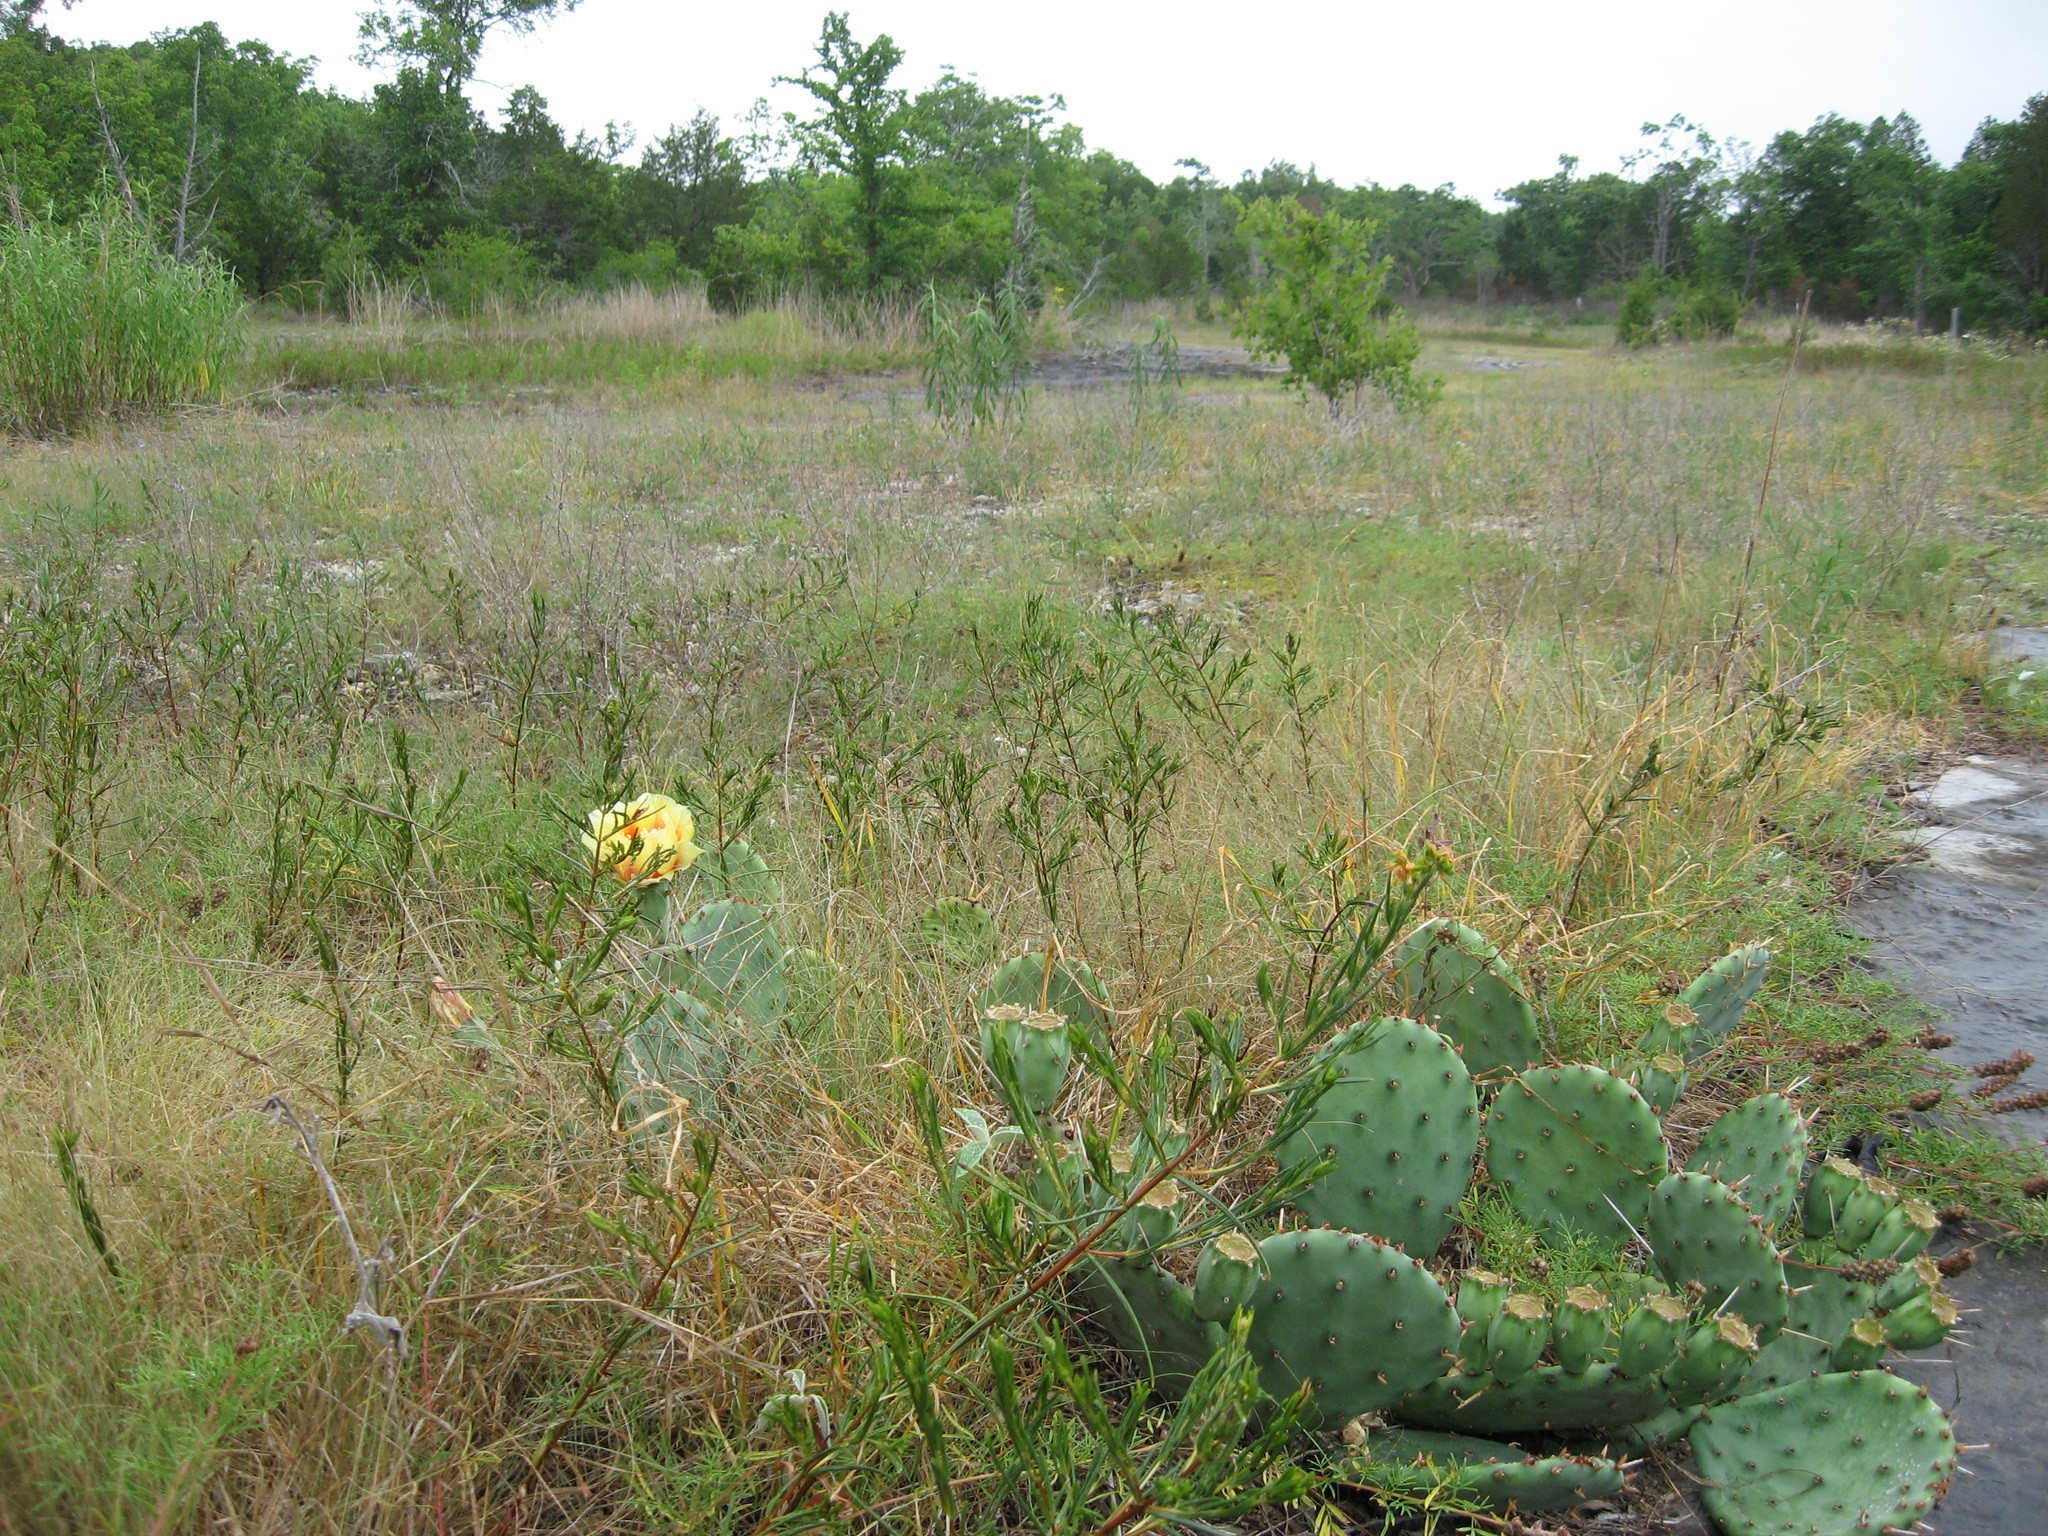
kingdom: Plantae
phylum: Tracheophyta
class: Magnoliopsida
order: Caryophyllales
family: Cactaceae
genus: Opuntia
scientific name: Opuntia humifusa
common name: Eastern prickly-pear
